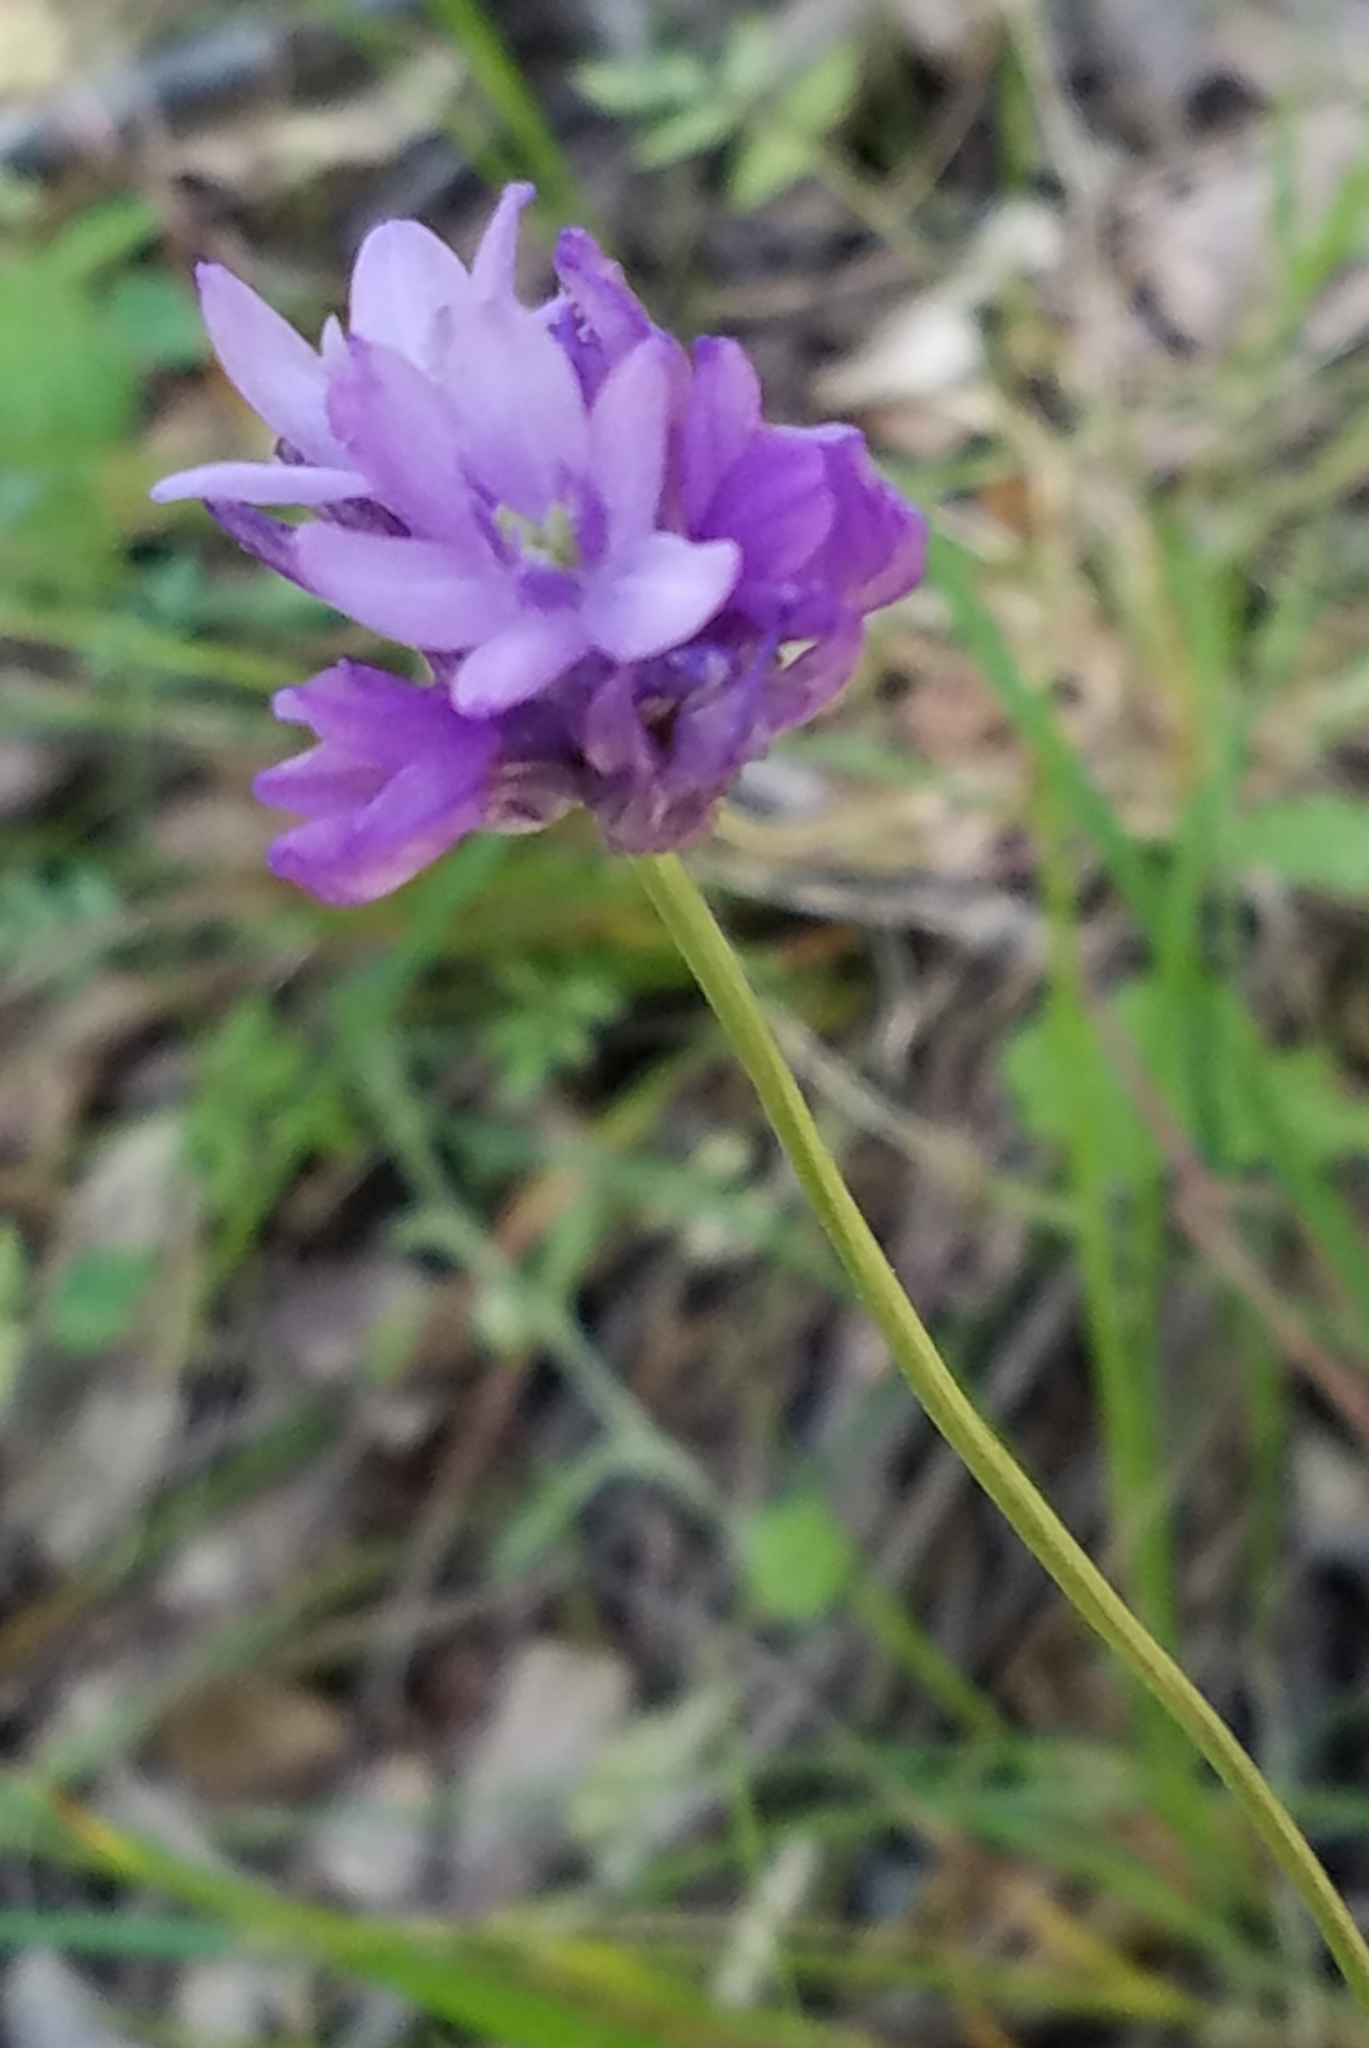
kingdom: Plantae
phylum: Tracheophyta
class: Liliopsida
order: Asparagales
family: Asparagaceae
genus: Dichelostemma
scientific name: Dichelostemma congestum
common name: Fork-tooth ookow
